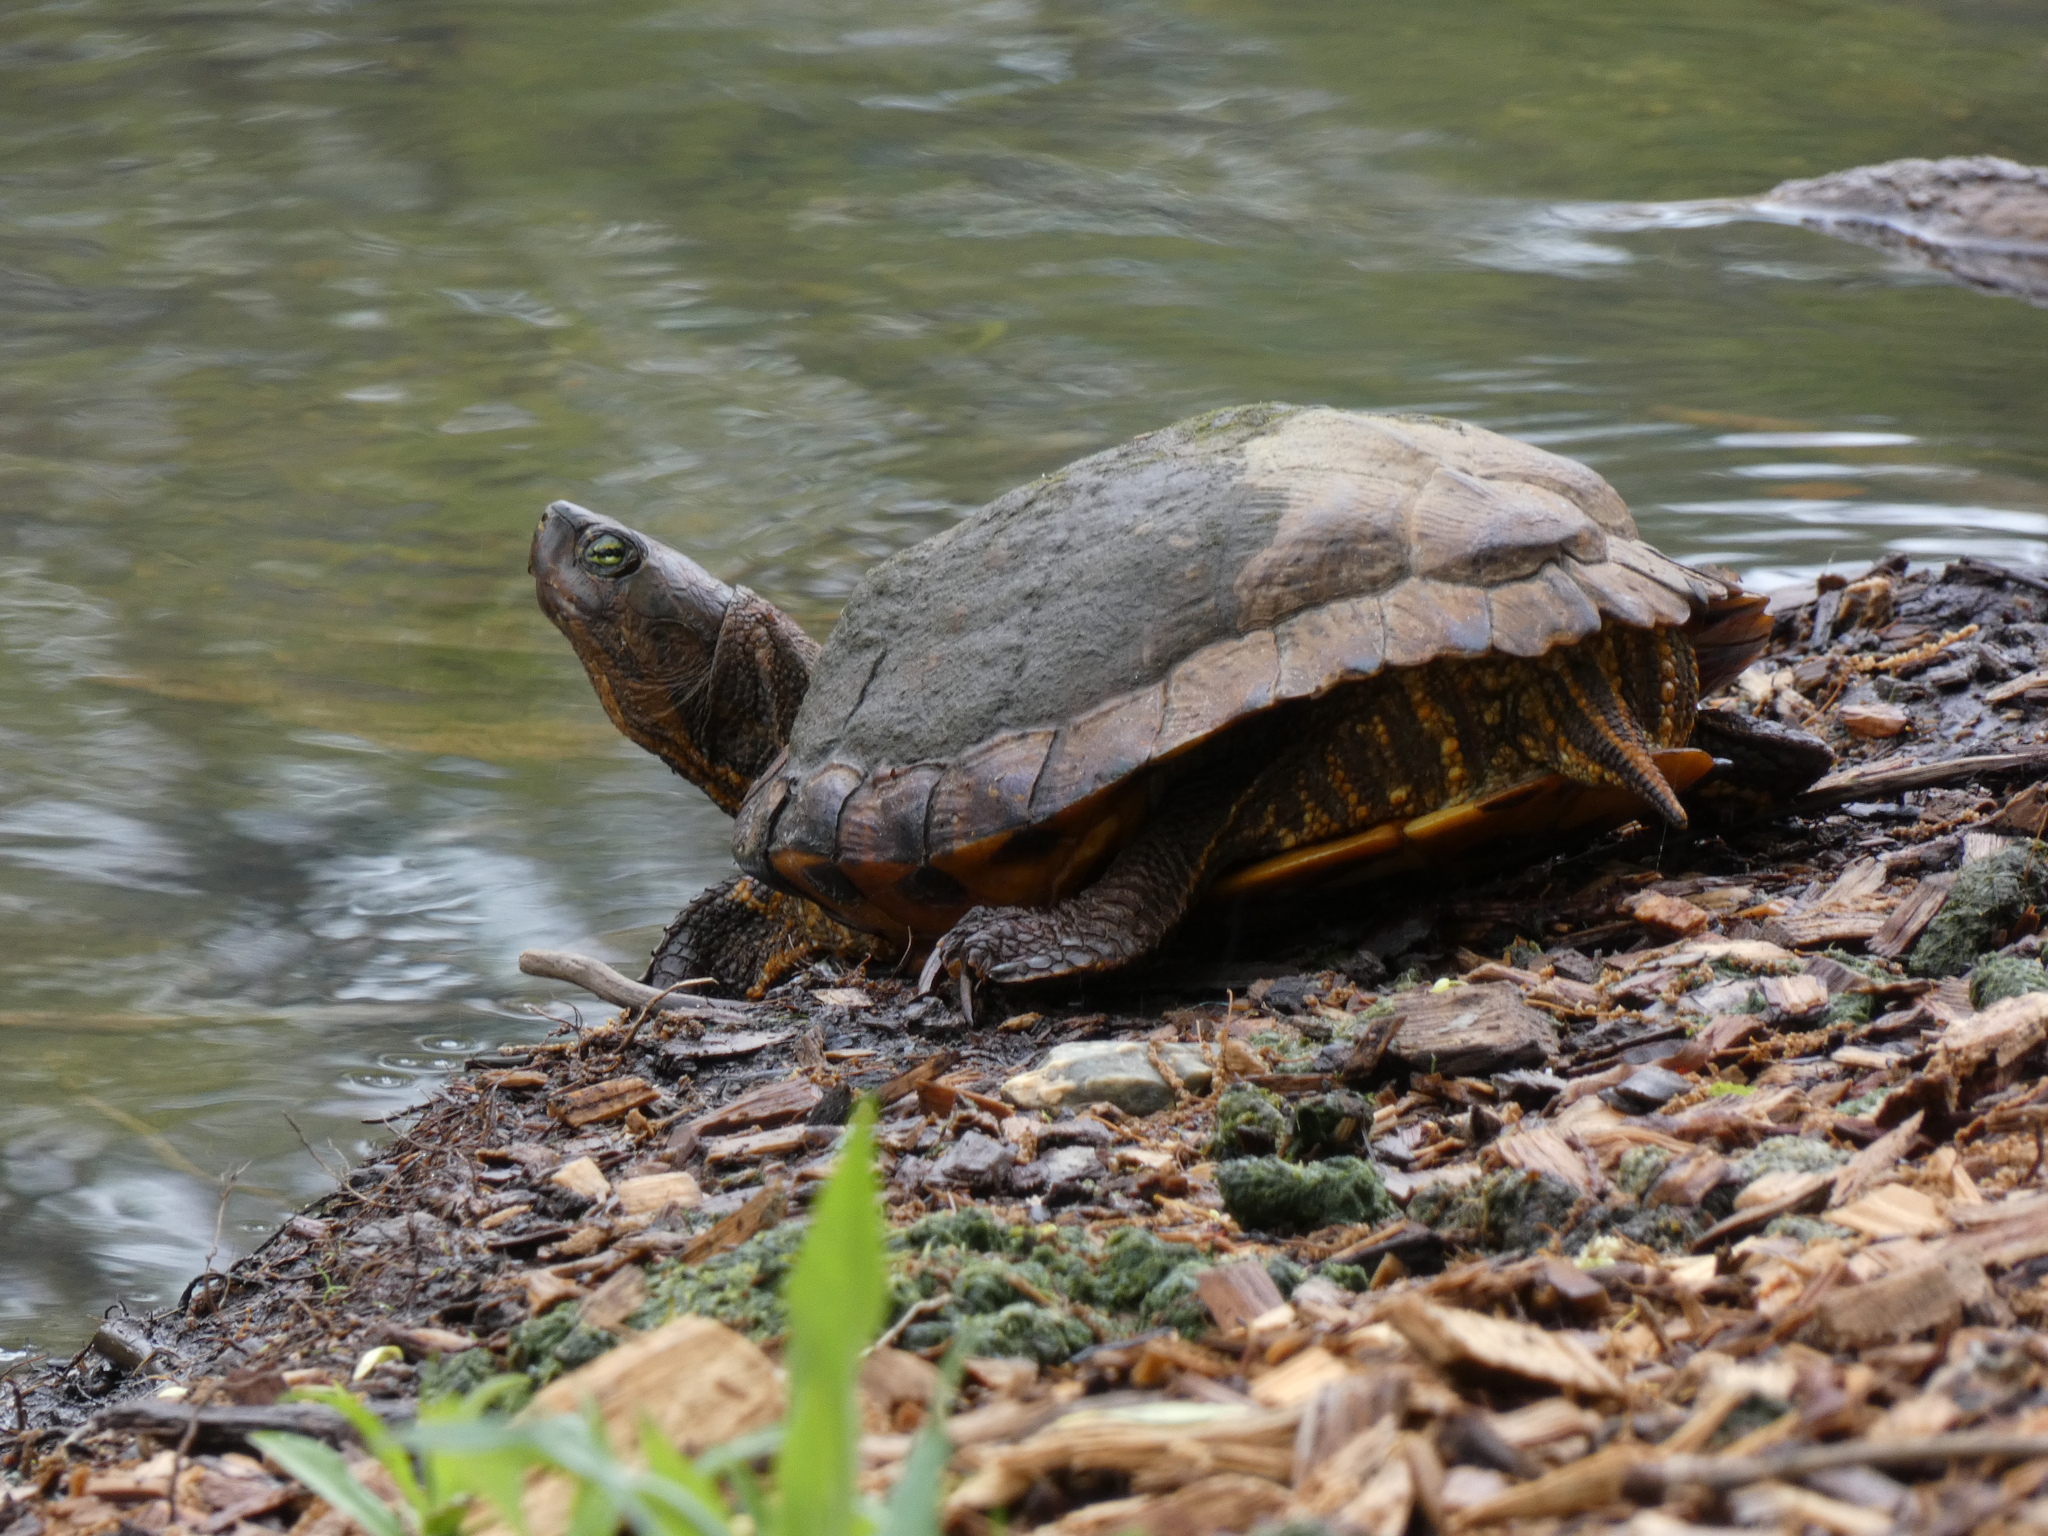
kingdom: Animalia
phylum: Chordata
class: Testudines
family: Emydidae
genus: Trachemys
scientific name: Trachemys scripta
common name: Slider
